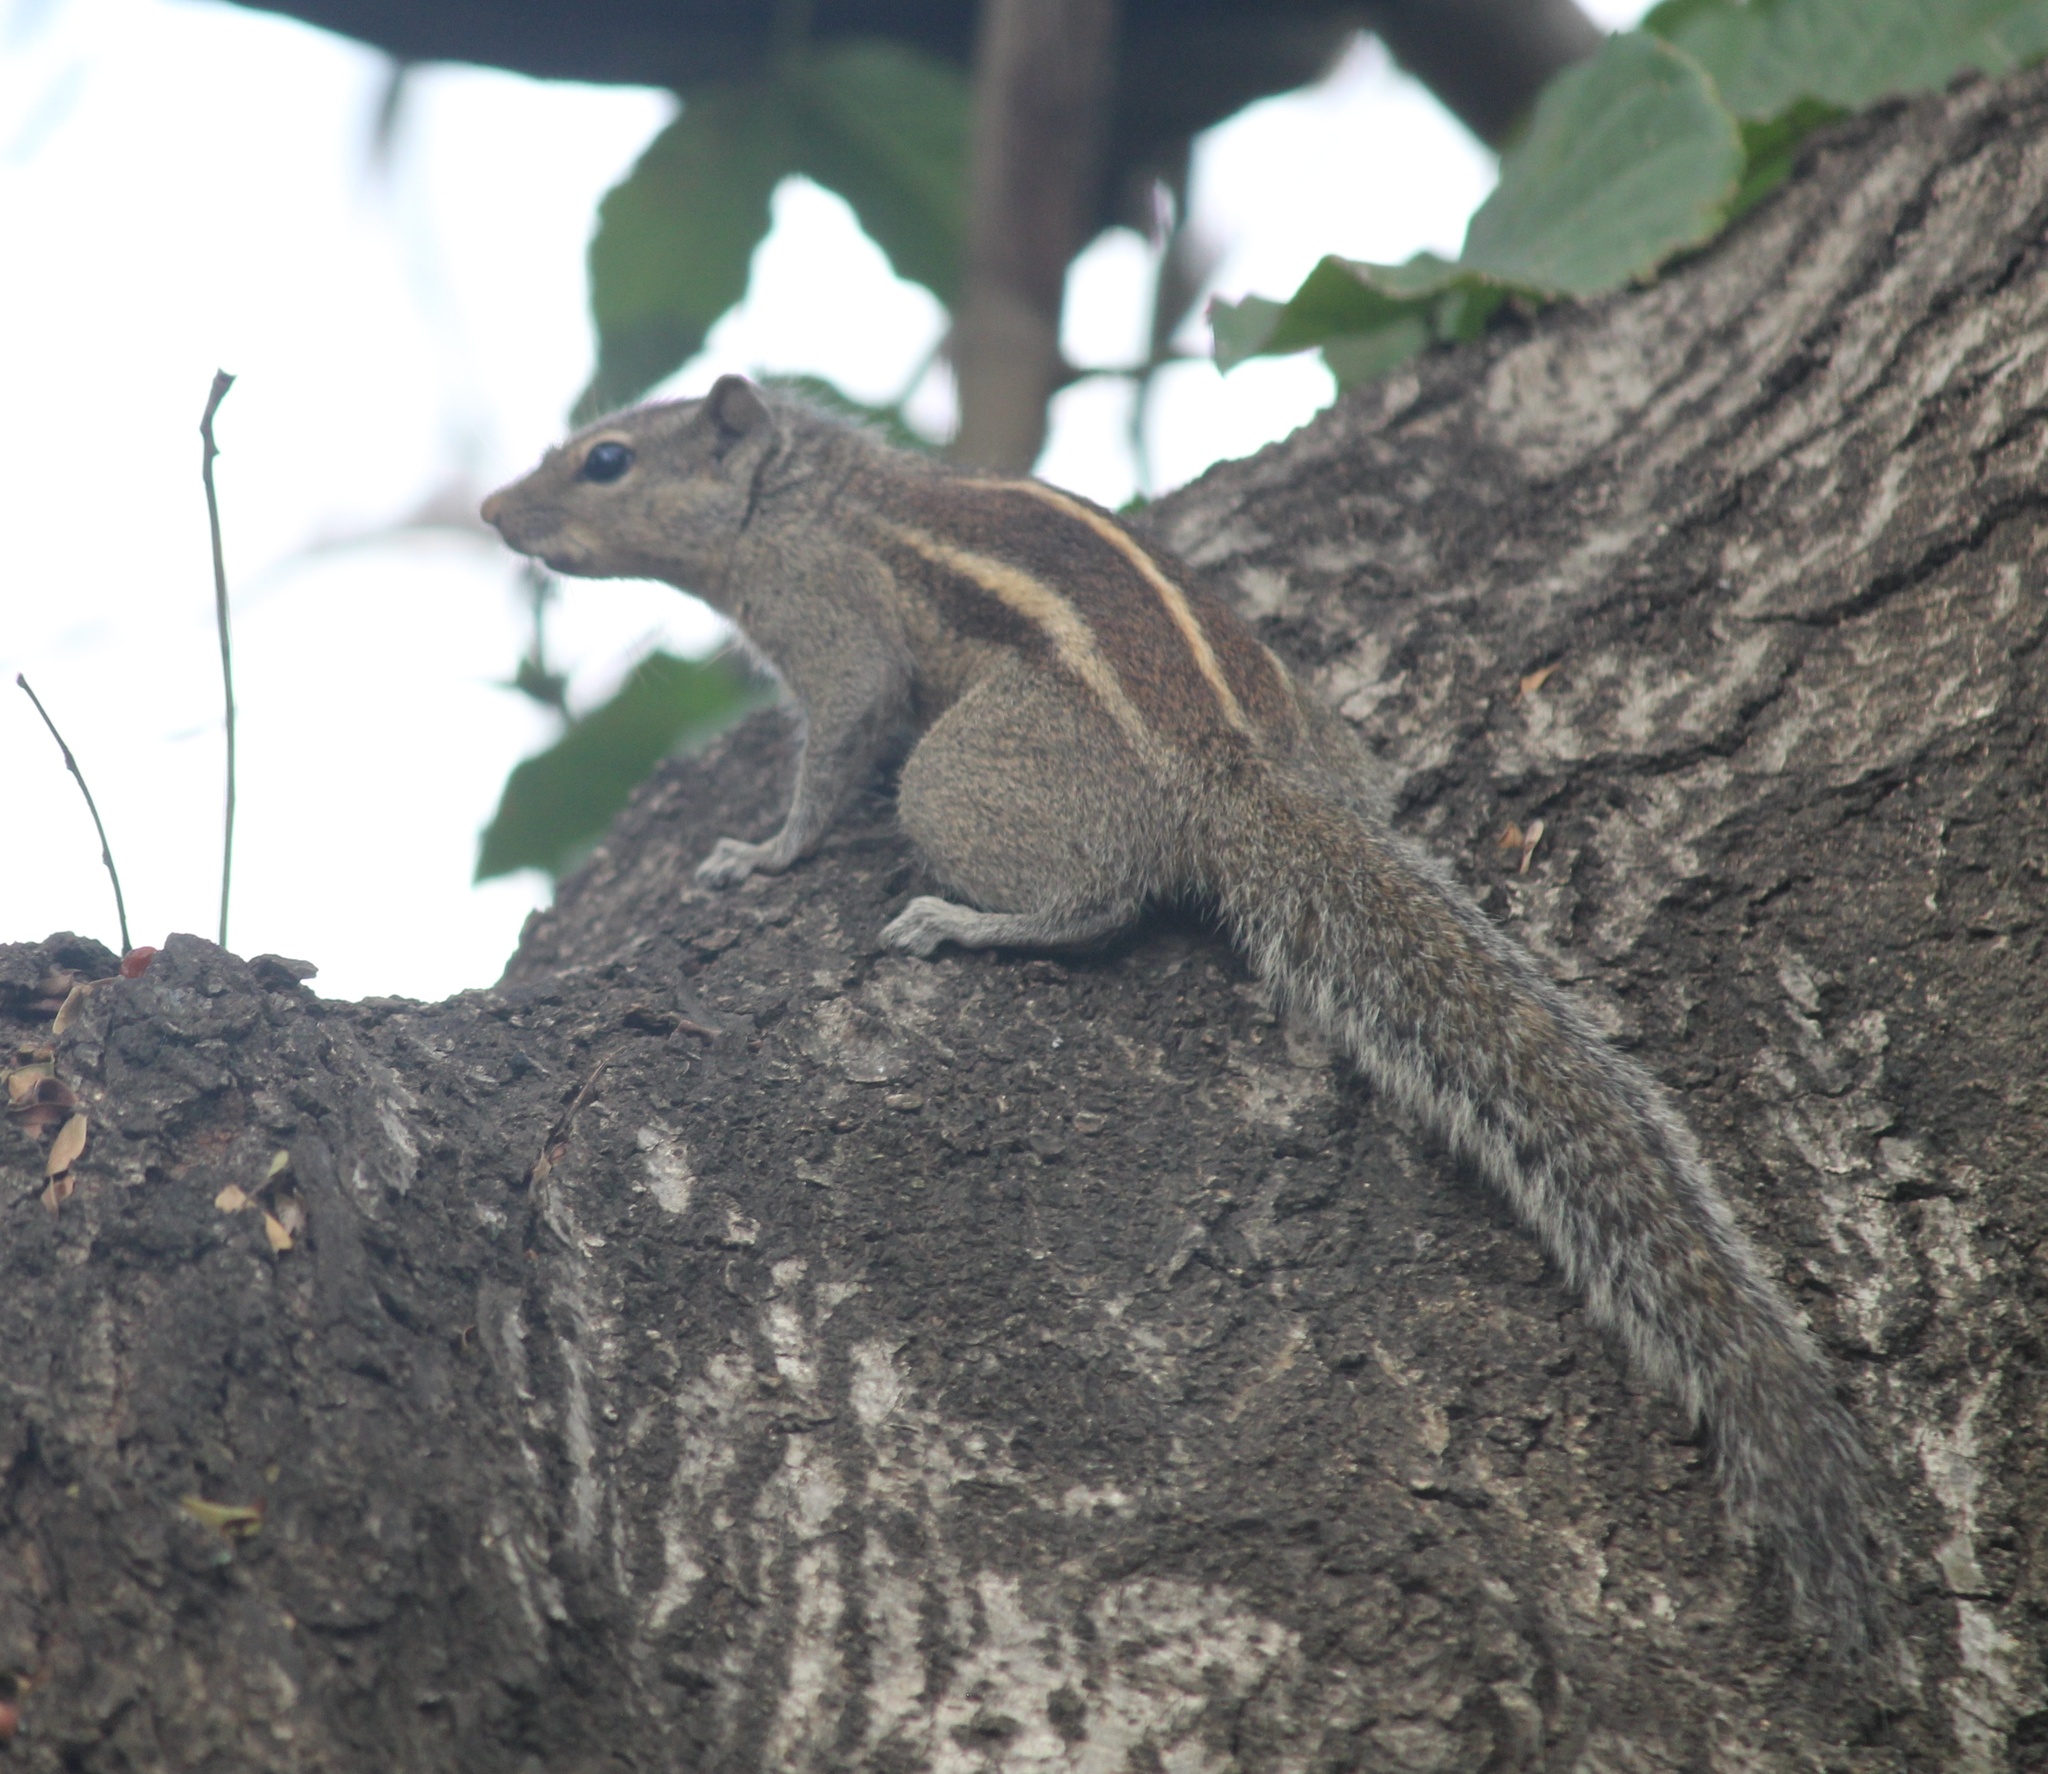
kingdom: Animalia
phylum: Chordata
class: Mammalia
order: Rodentia
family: Sciuridae
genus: Funambulus
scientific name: Funambulus palmarum
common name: Indian palm squirrel
